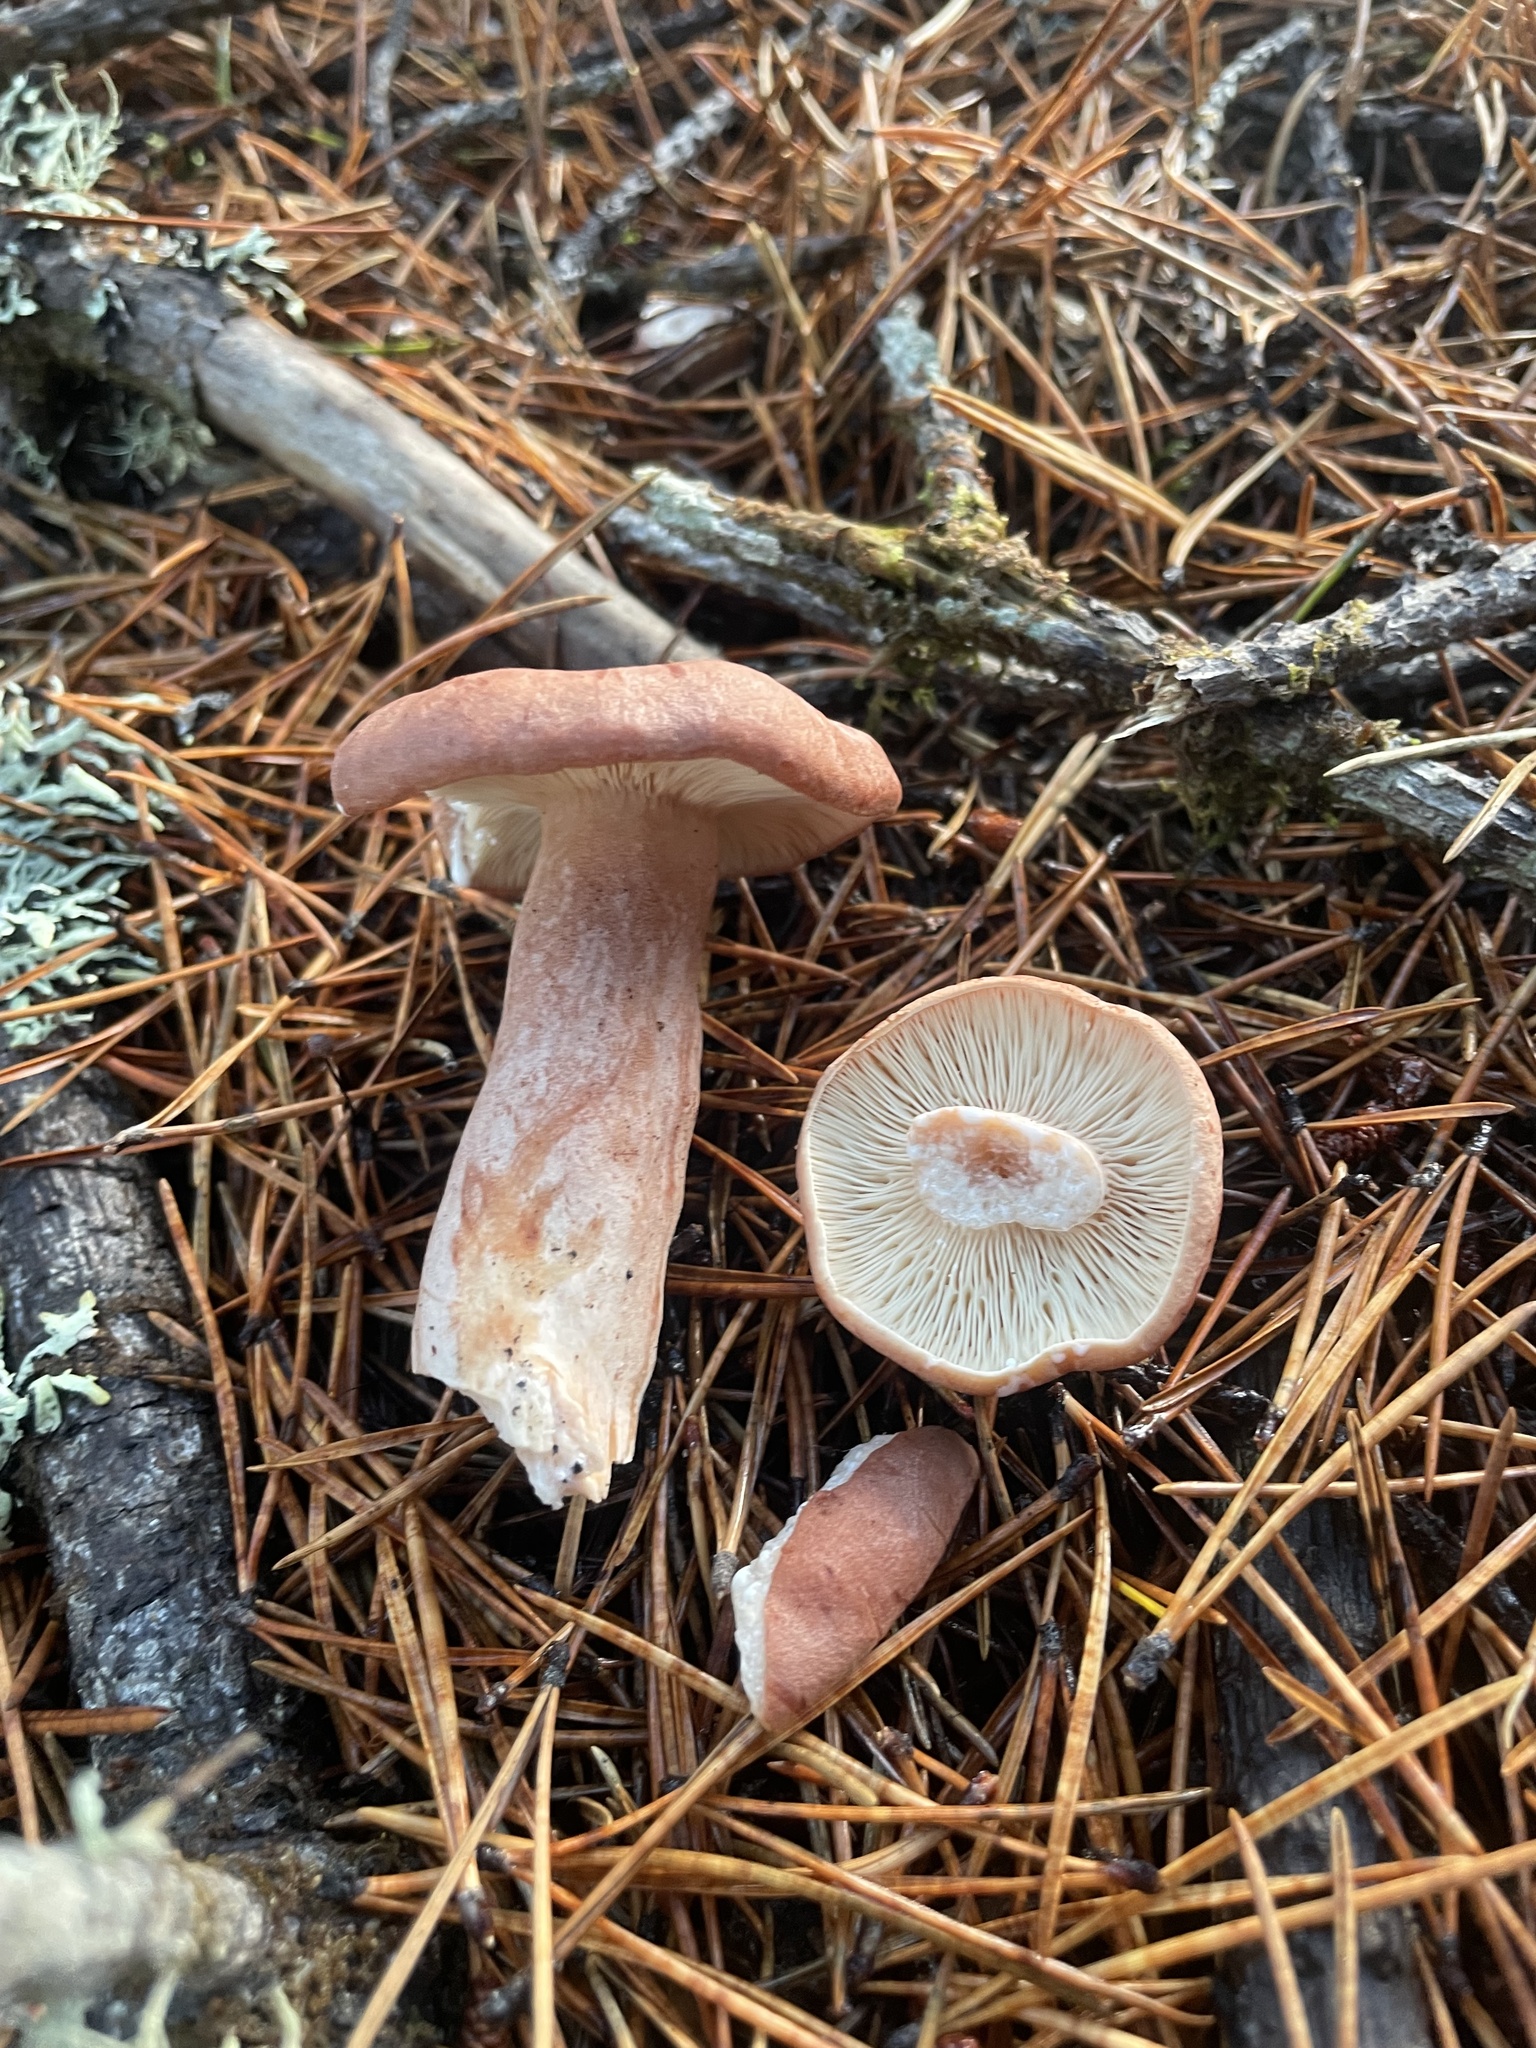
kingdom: Fungi
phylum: Basidiomycota
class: Agaricomycetes
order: Russulales
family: Russulaceae
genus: Lactarius
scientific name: Lactarius rufus
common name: Rufous milk-cap
